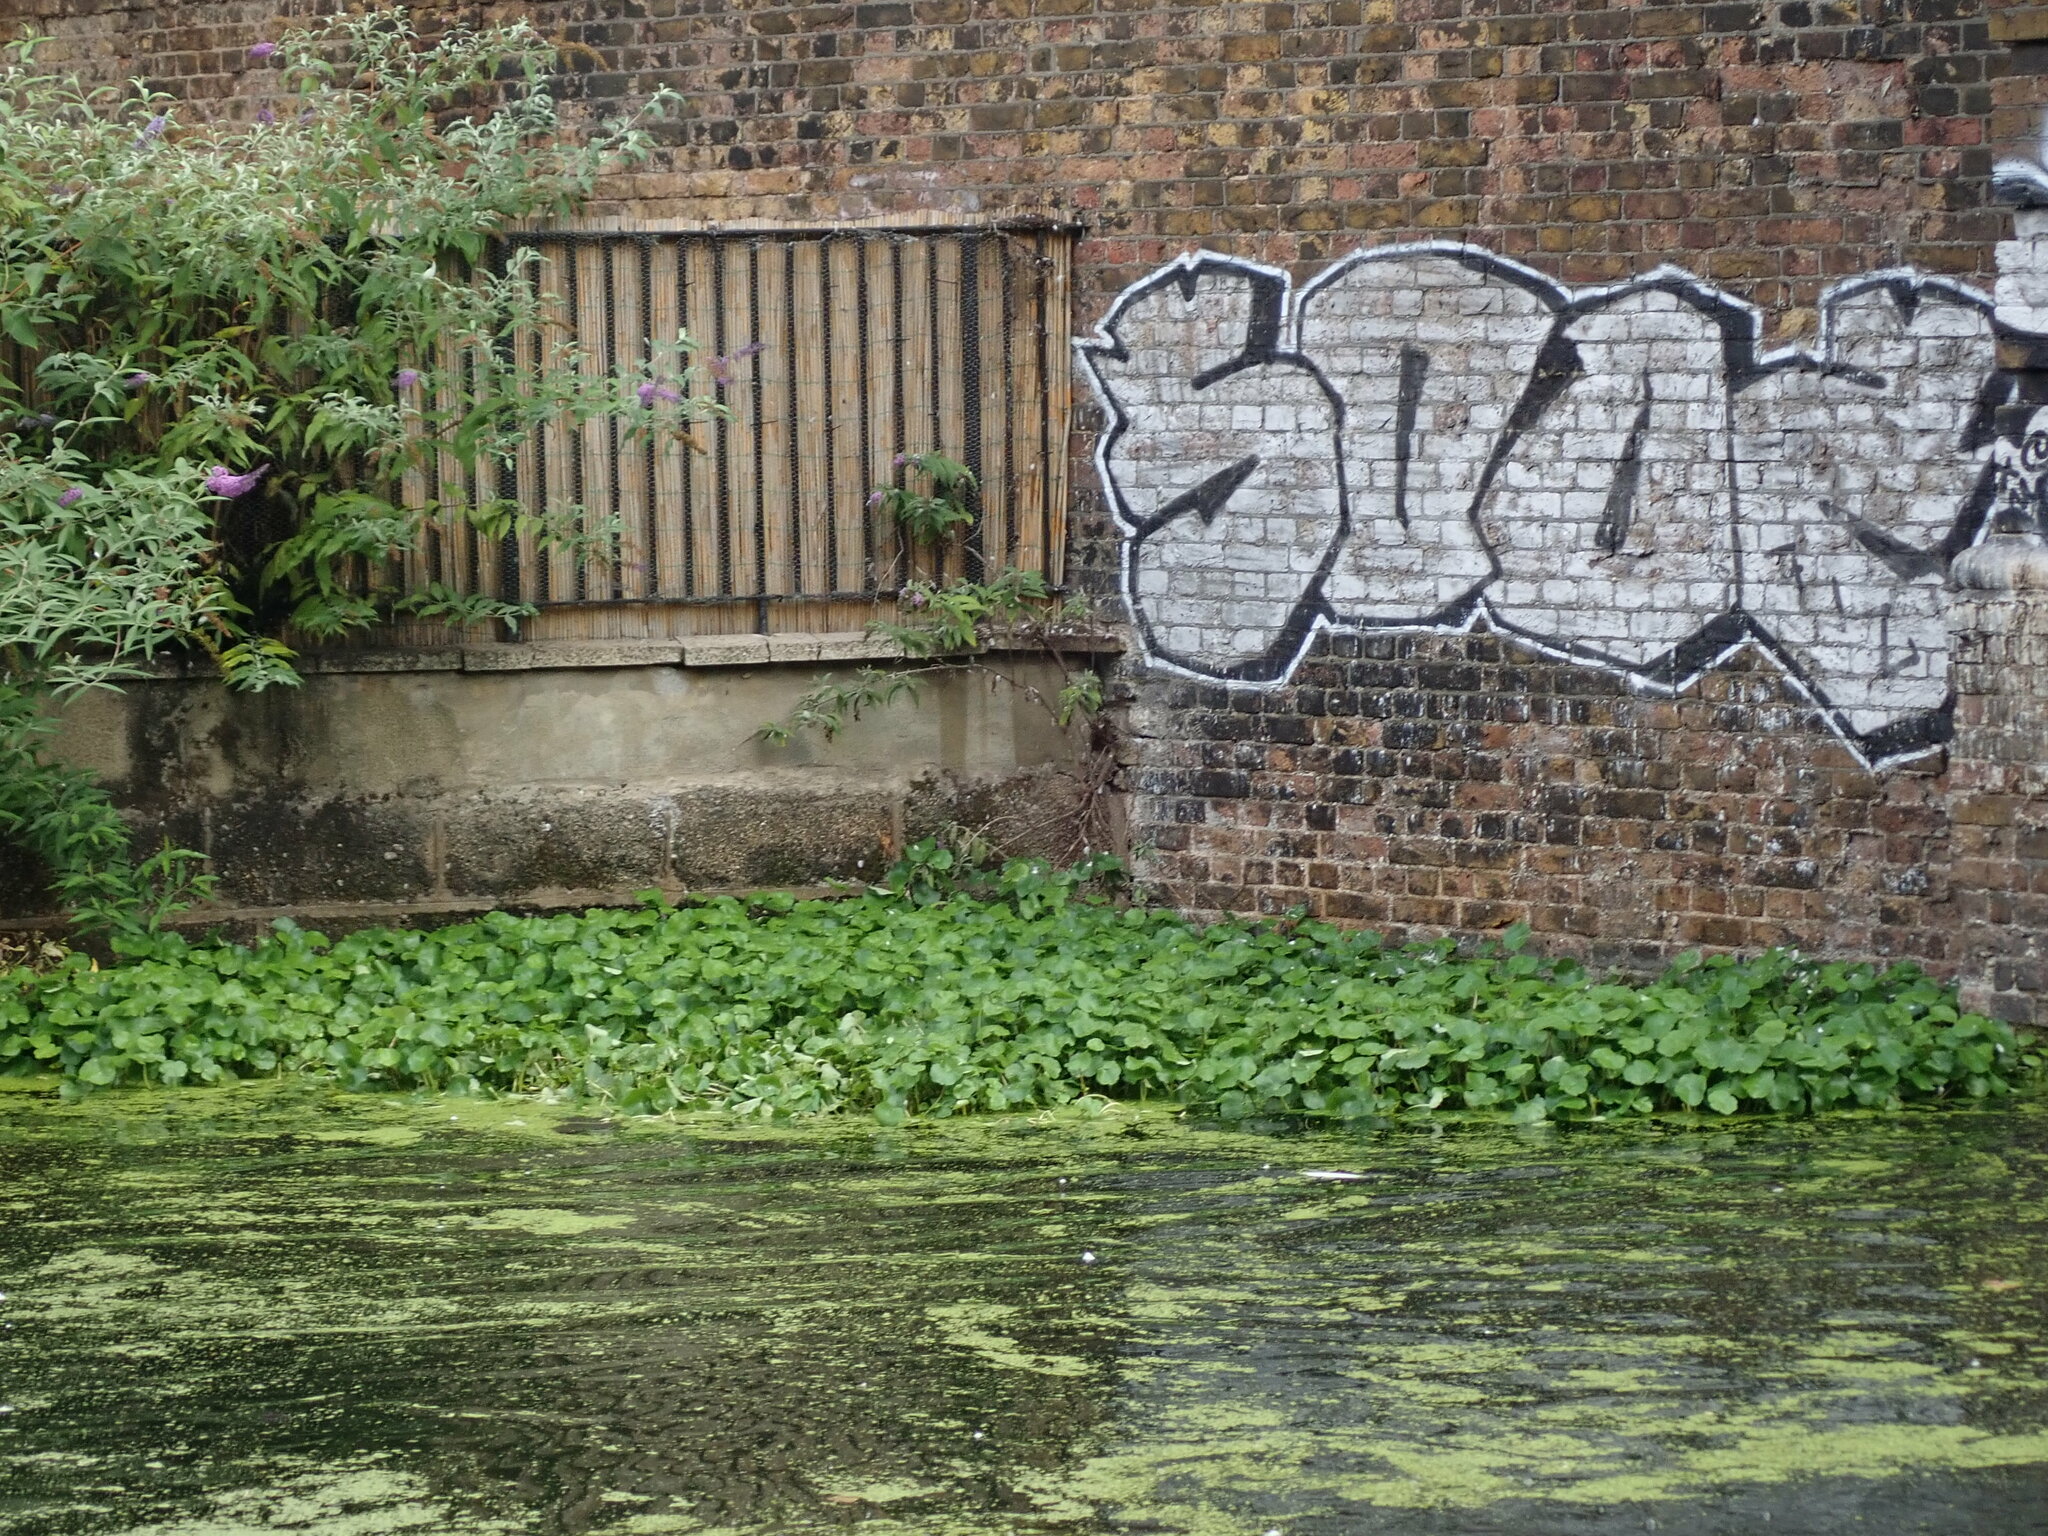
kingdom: Plantae
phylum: Tracheophyta
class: Magnoliopsida
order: Apiales
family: Araliaceae
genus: Hydrocotyle
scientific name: Hydrocotyle ranunculoides
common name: Floating pennywort
